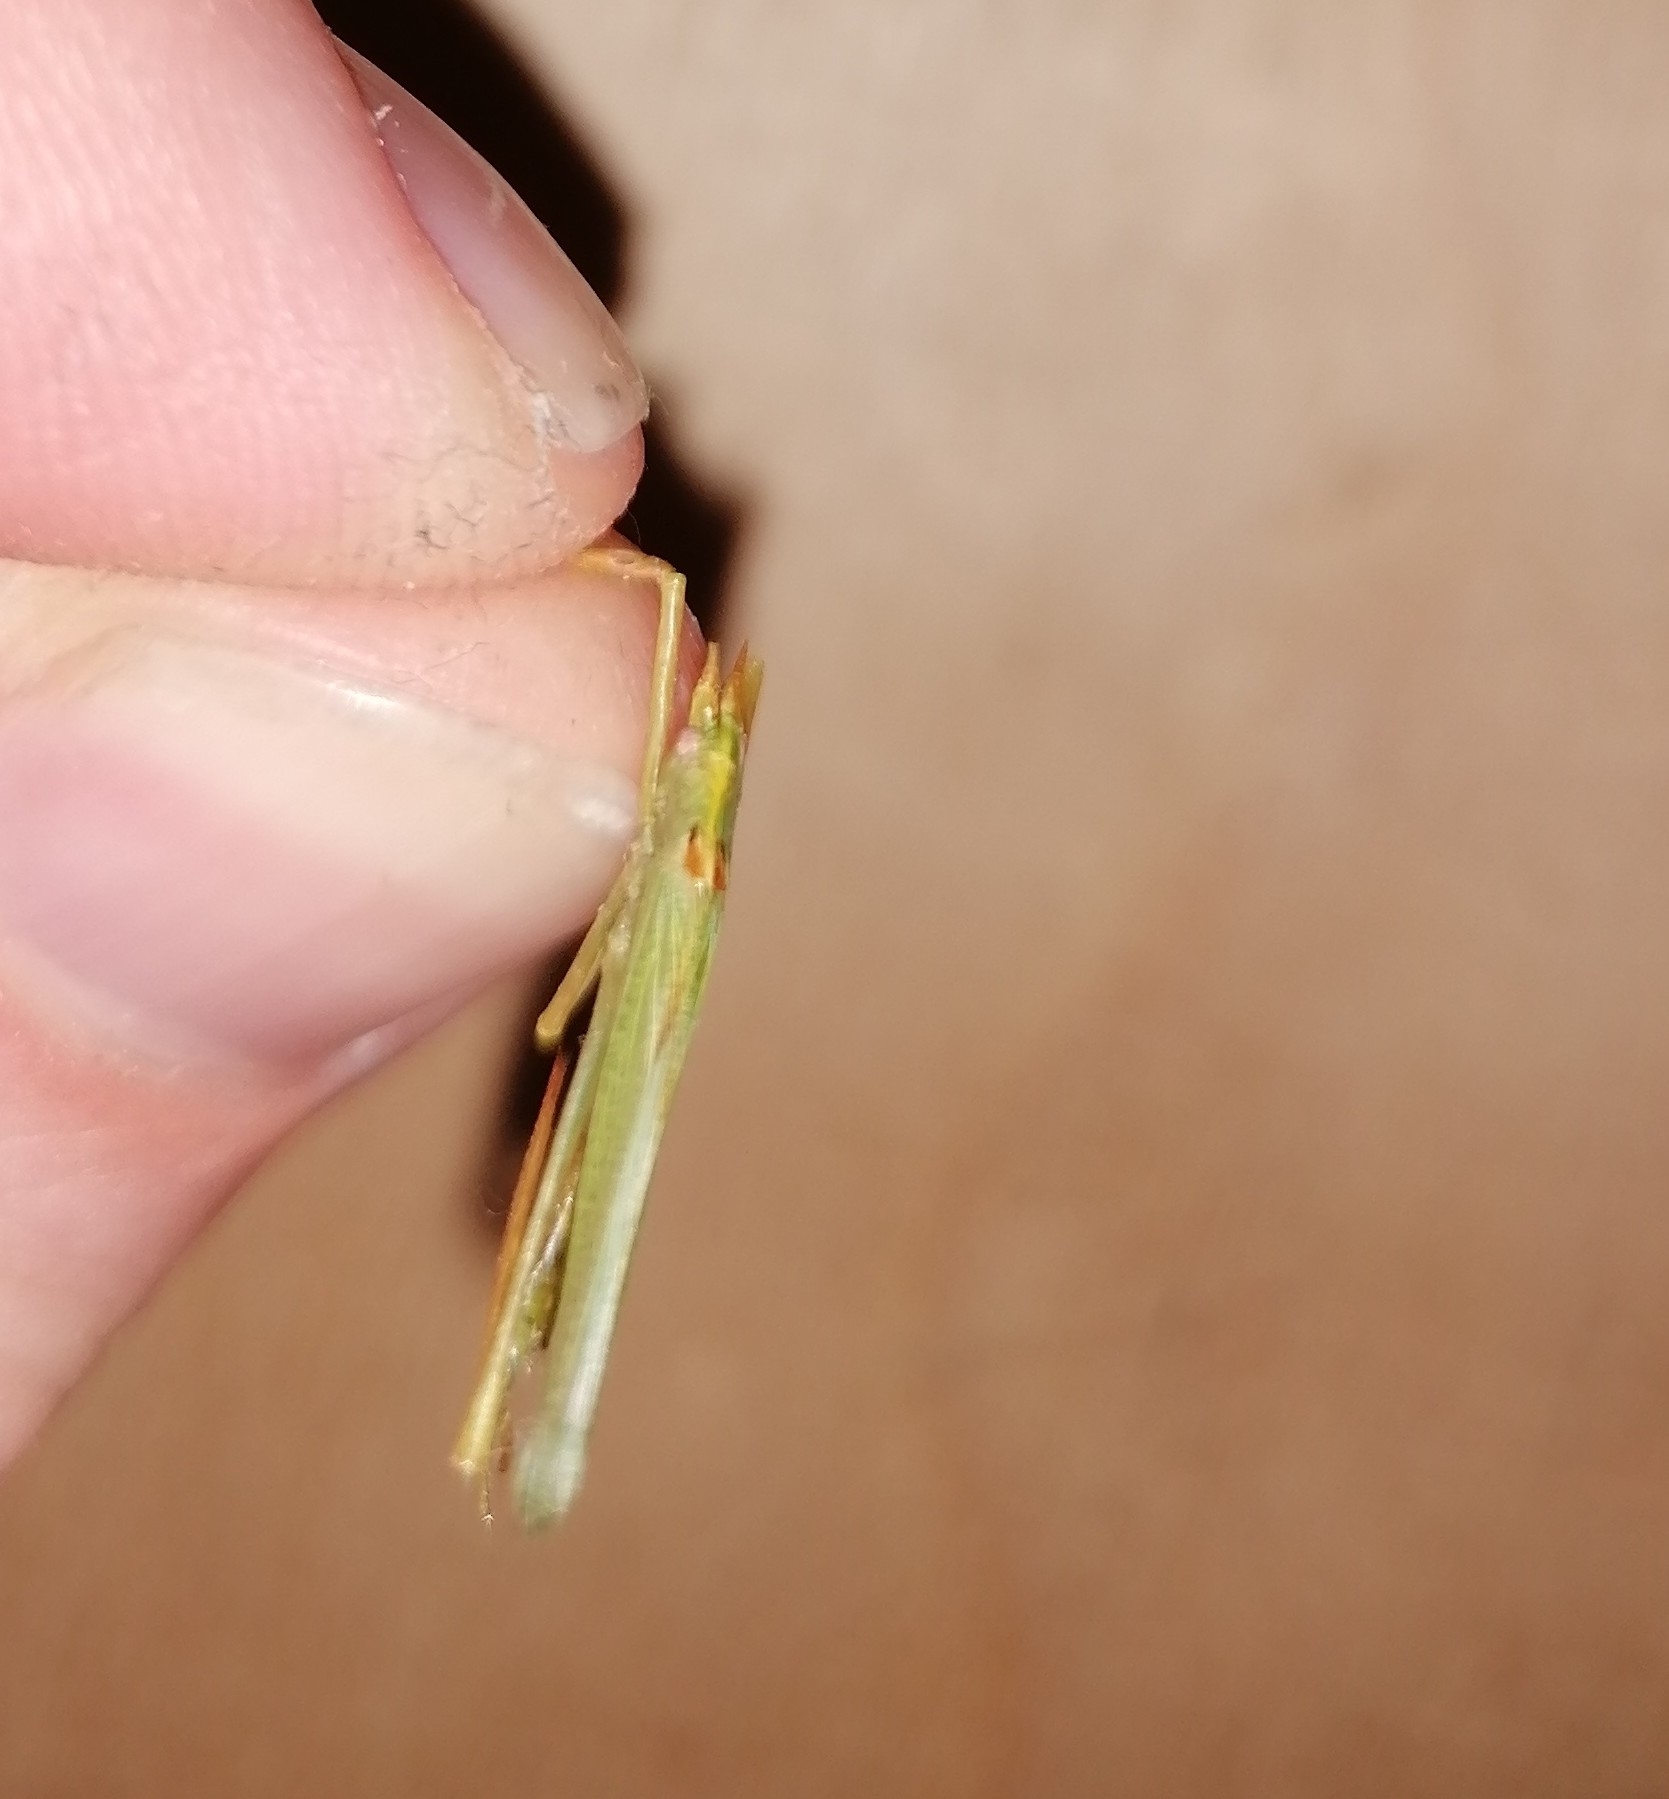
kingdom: Animalia
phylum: Arthropoda
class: Insecta
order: Orthoptera
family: Tettigoniidae
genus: Meconema
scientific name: Meconema thalassinum
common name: Oak bush-cricket
